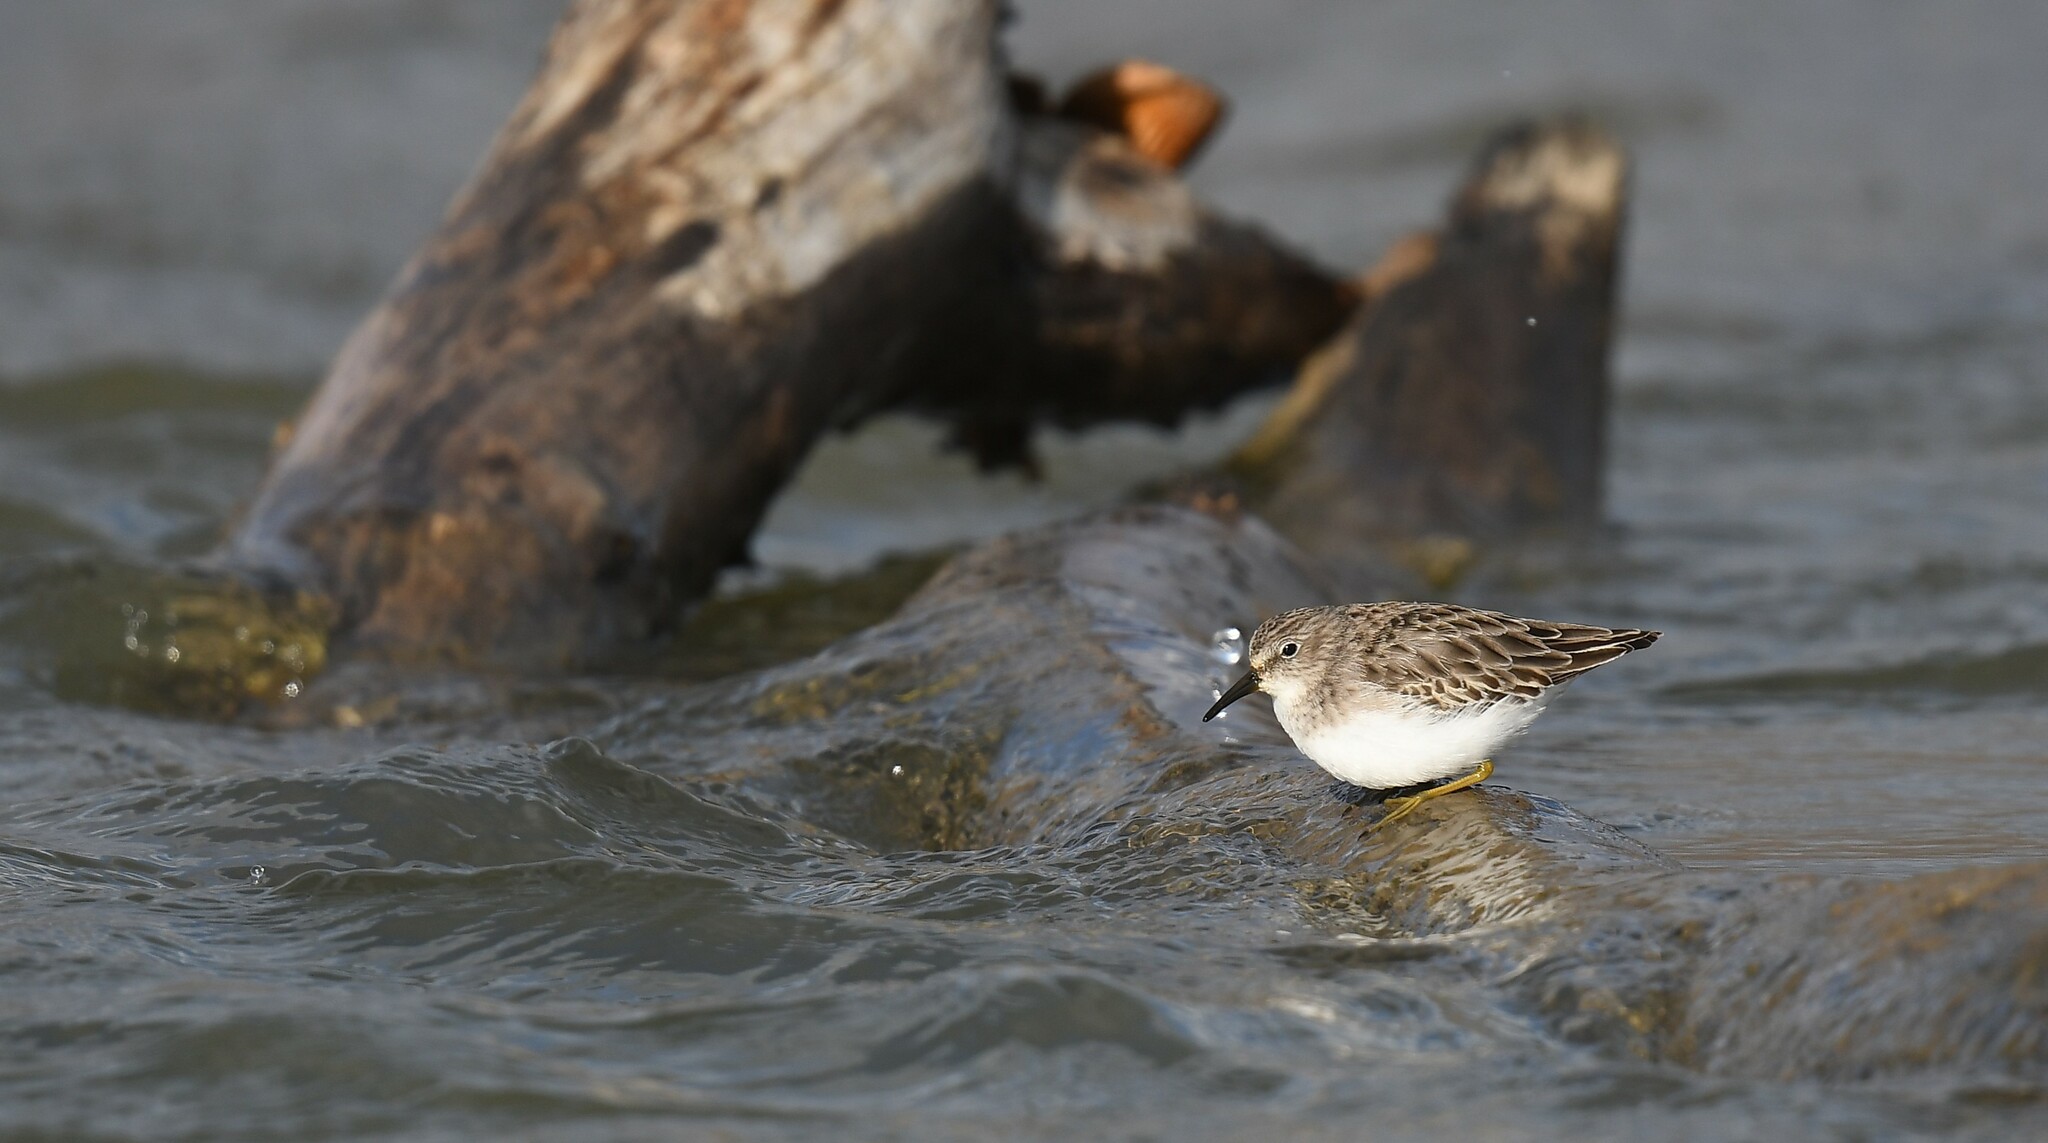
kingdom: Animalia
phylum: Chordata
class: Aves
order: Charadriiformes
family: Scolopacidae
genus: Calidris
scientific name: Calidris minutilla
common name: Least sandpiper
